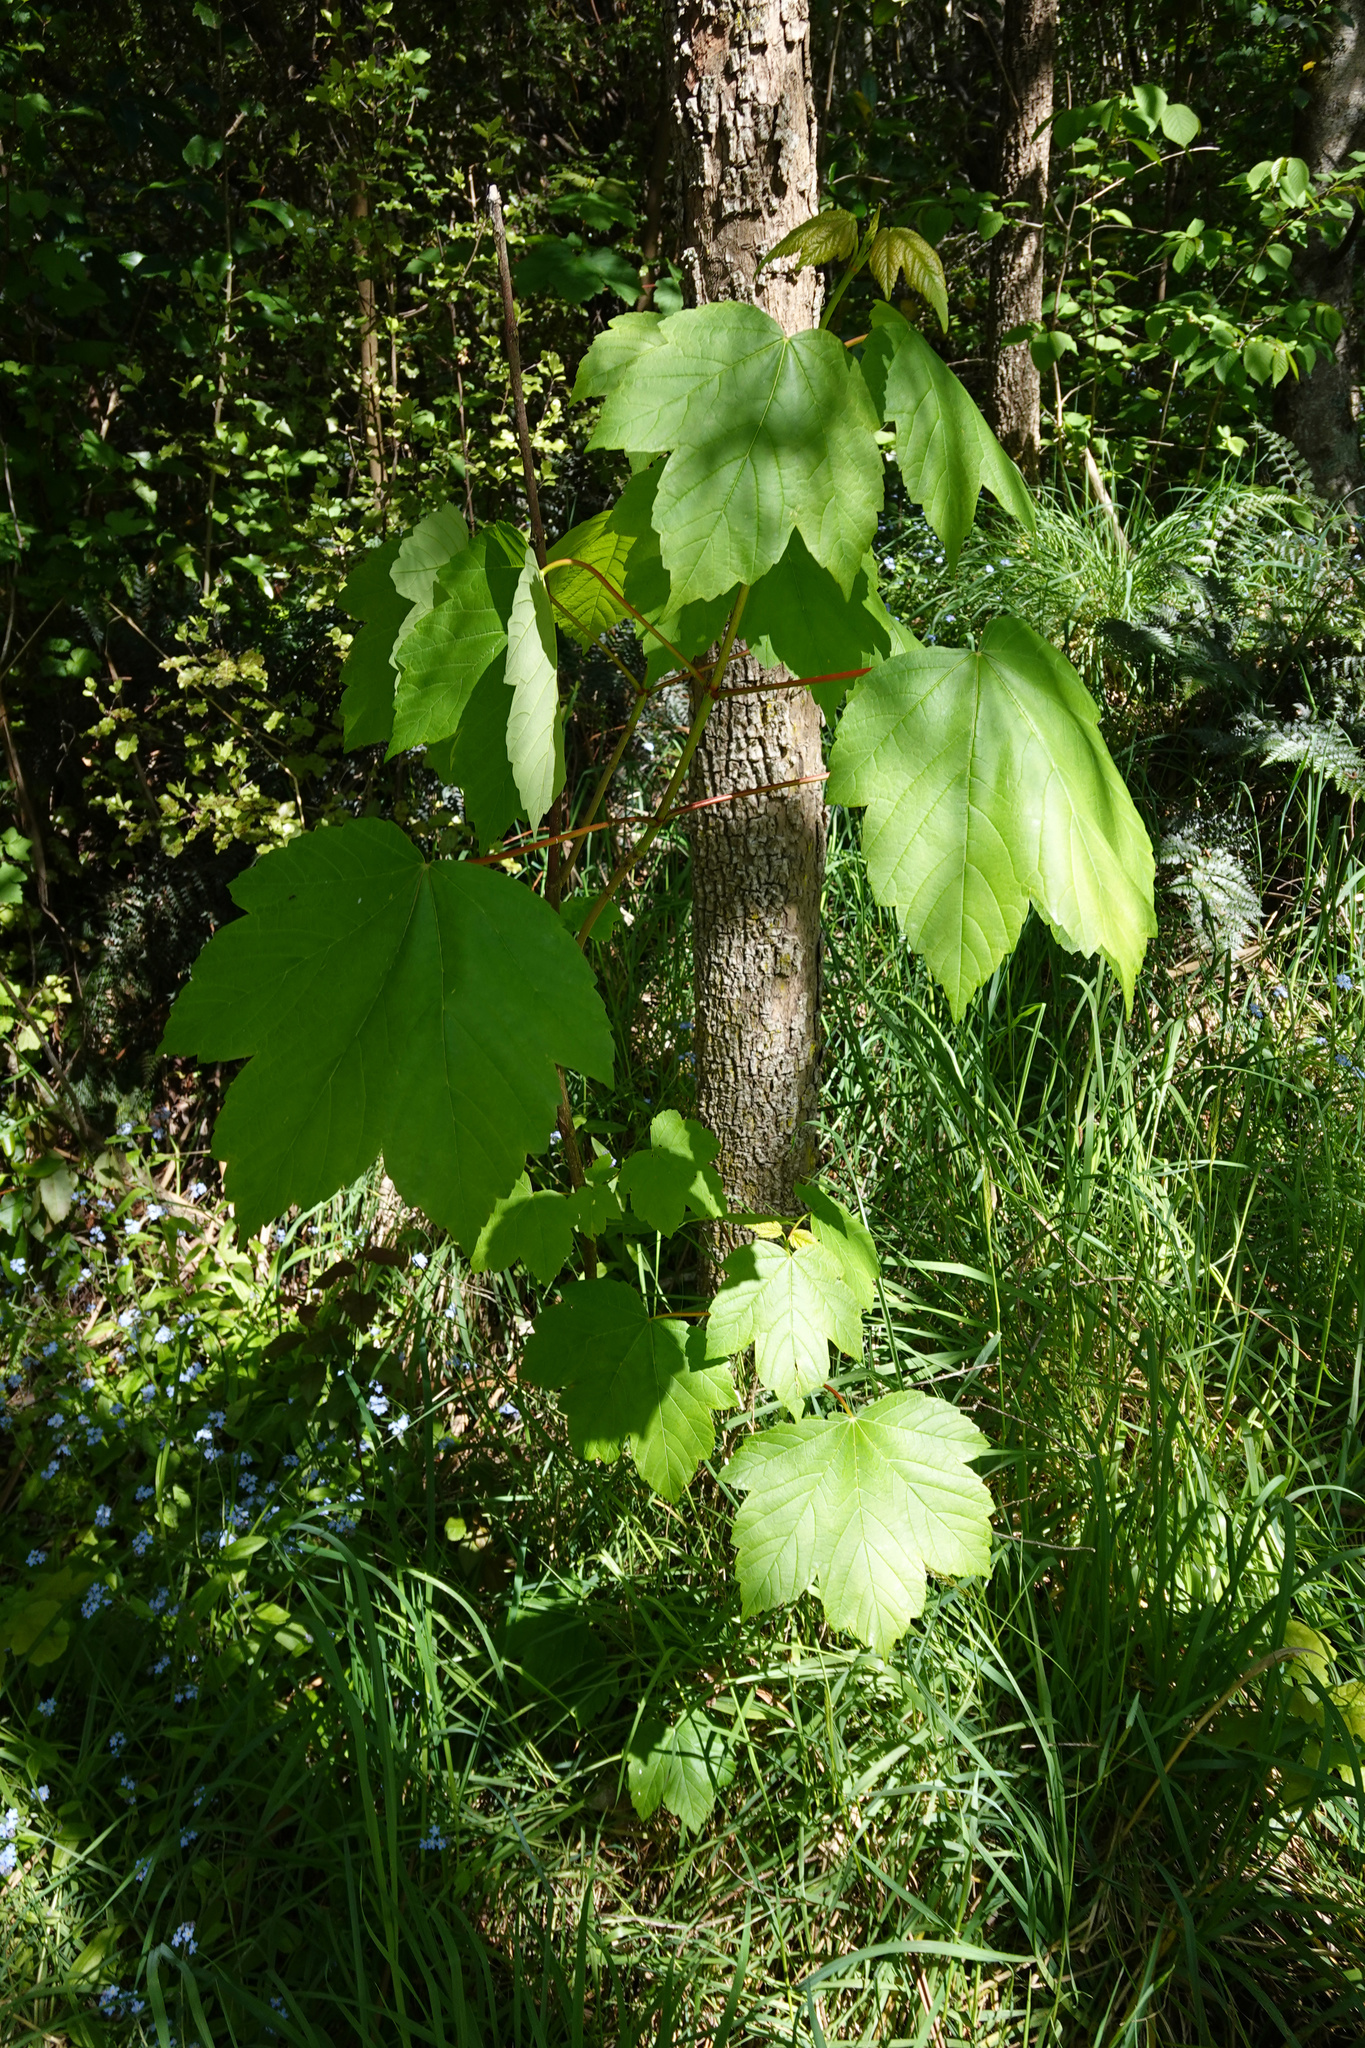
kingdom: Plantae
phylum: Tracheophyta
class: Magnoliopsida
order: Sapindales
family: Sapindaceae
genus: Acer
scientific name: Acer pseudoplatanus
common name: Sycamore
